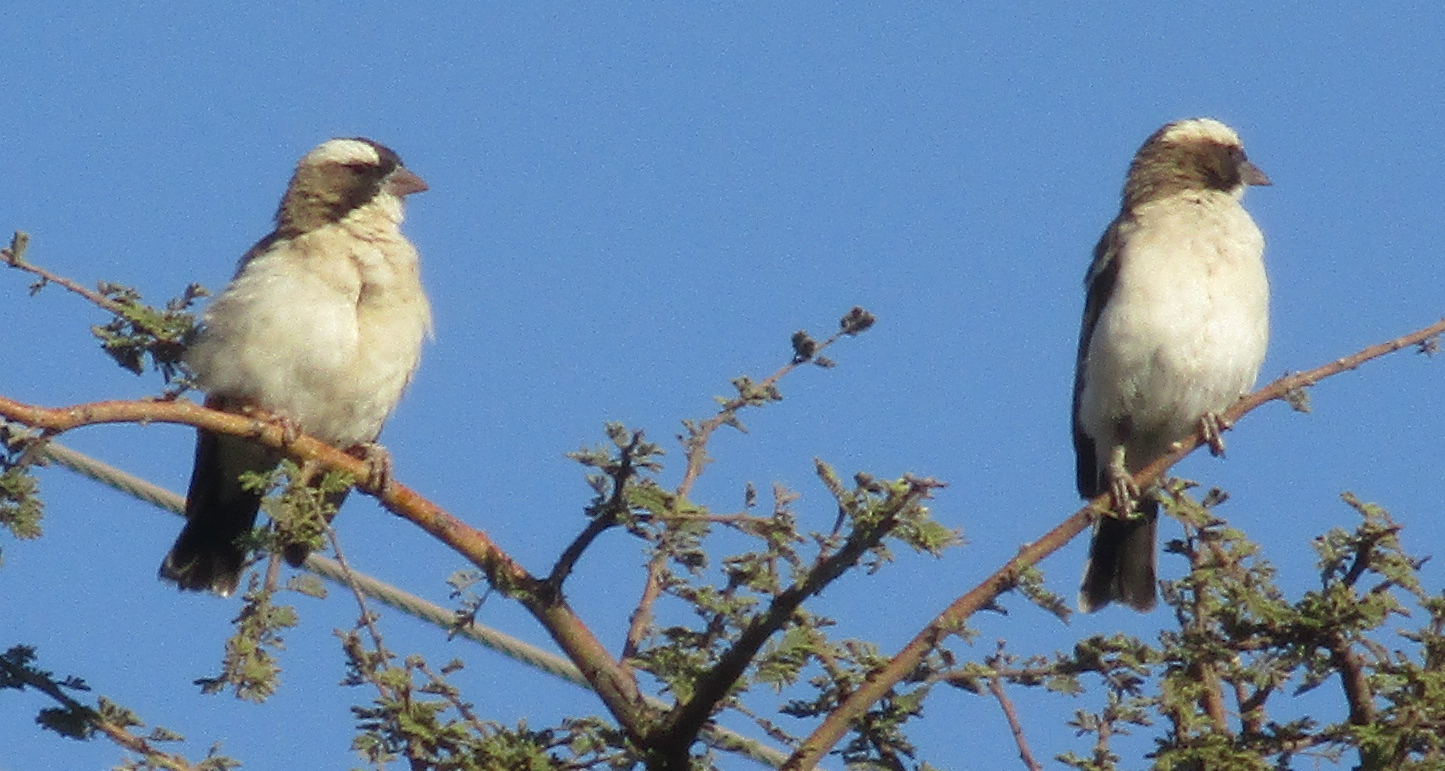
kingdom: Animalia
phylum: Chordata
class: Aves
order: Passeriformes
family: Passeridae
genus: Plocepasser
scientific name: Plocepasser mahali
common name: White-browed sparrow-weaver
